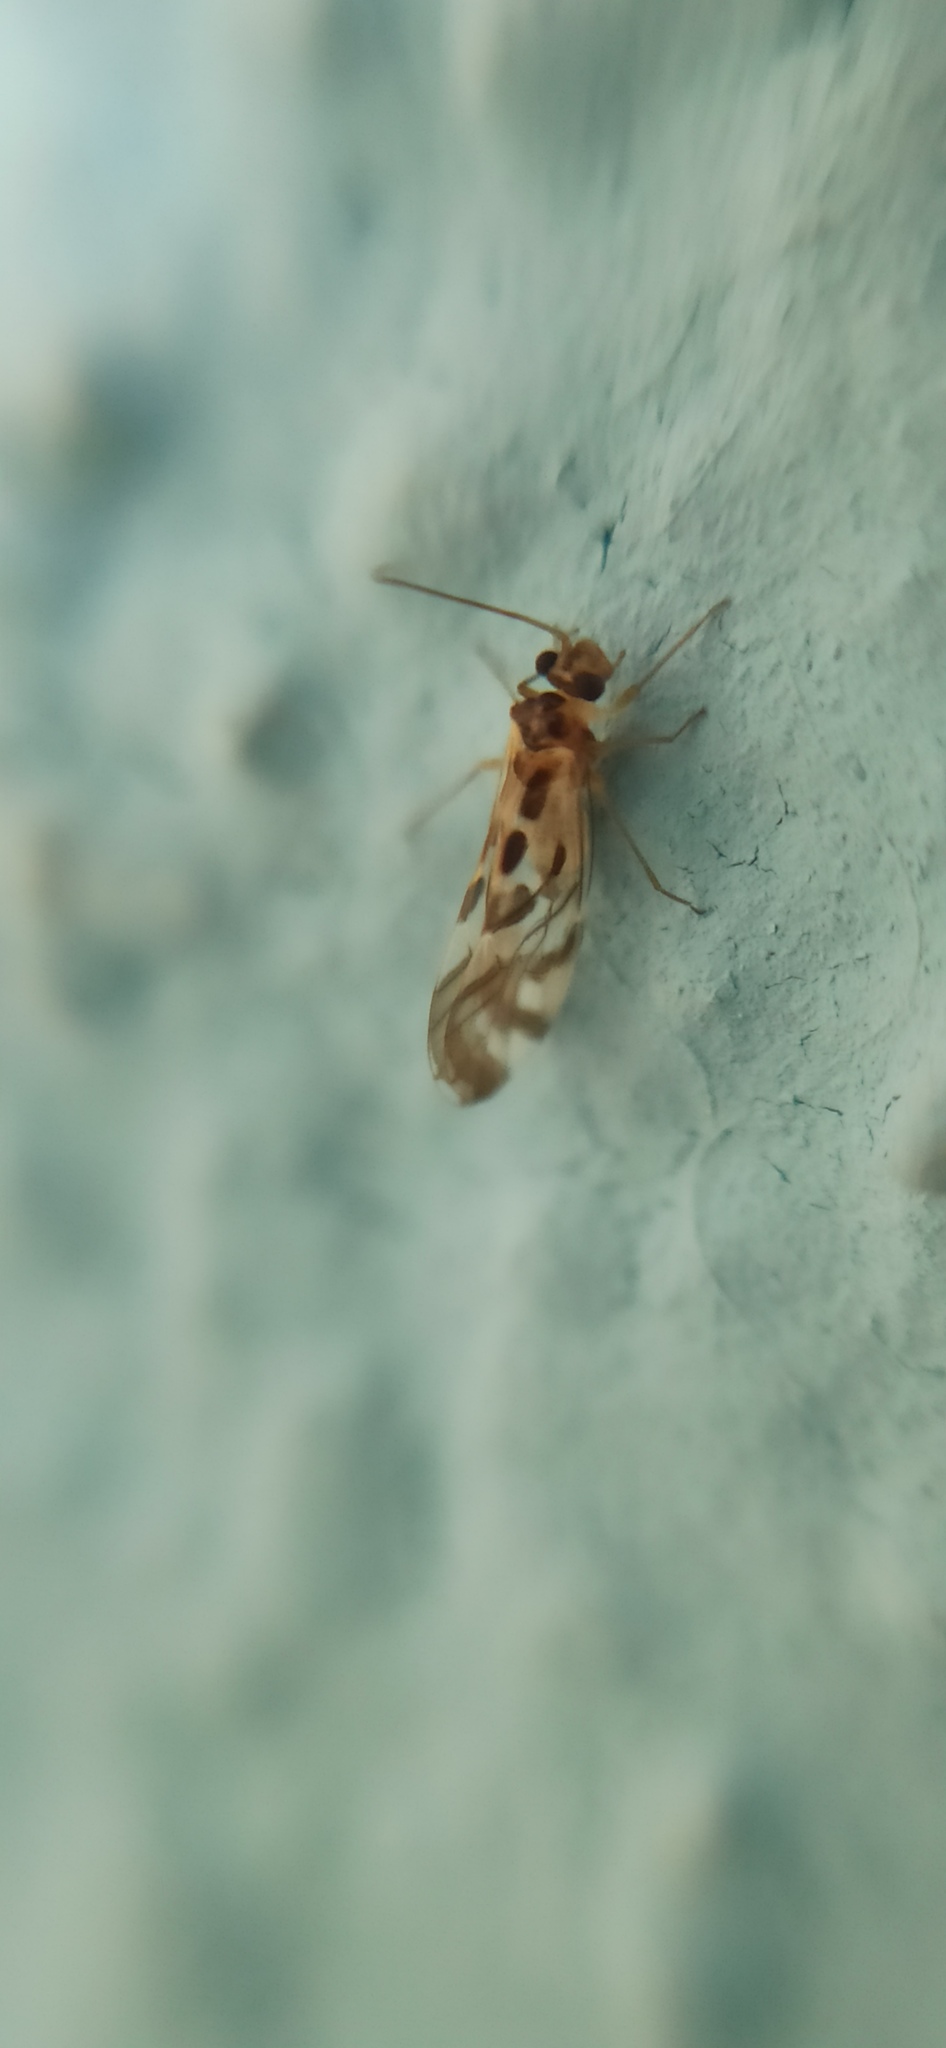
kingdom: Animalia
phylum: Arthropoda
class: Insecta
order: Psocodea
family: Stenopsocidae
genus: Graphopsocus
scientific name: Graphopsocus cruciatus
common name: Lizard bark louse
